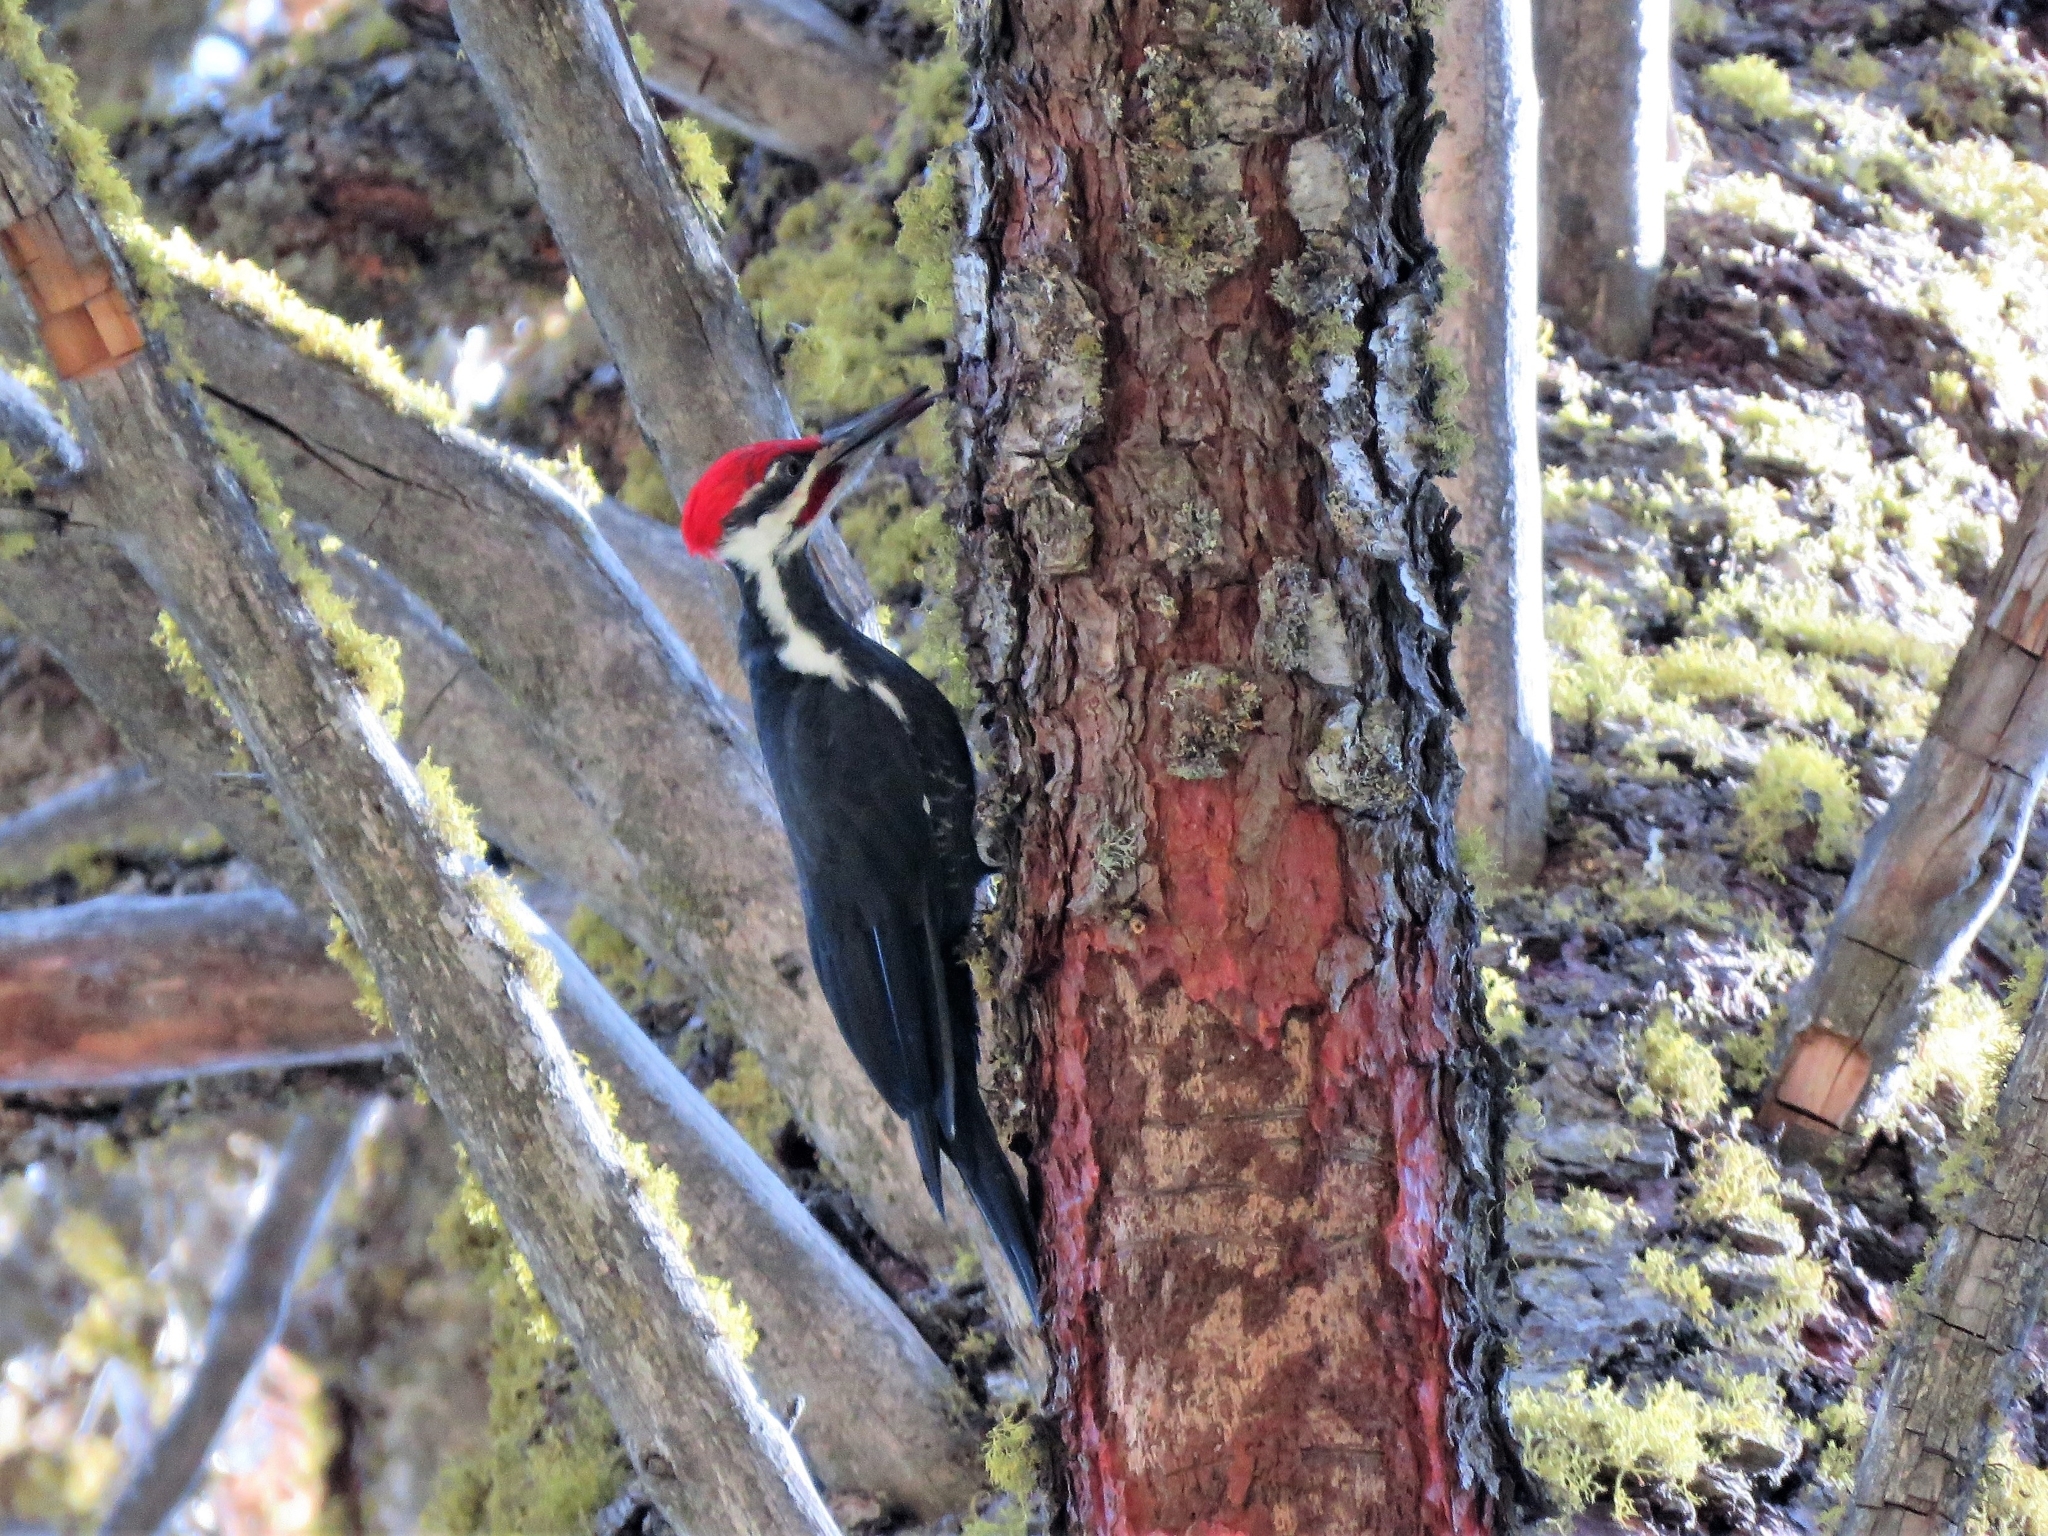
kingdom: Animalia
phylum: Chordata
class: Aves
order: Piciformes
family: Picidae
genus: Dryocopus
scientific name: Dryocopus pileatus
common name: Pileated woodpecker
